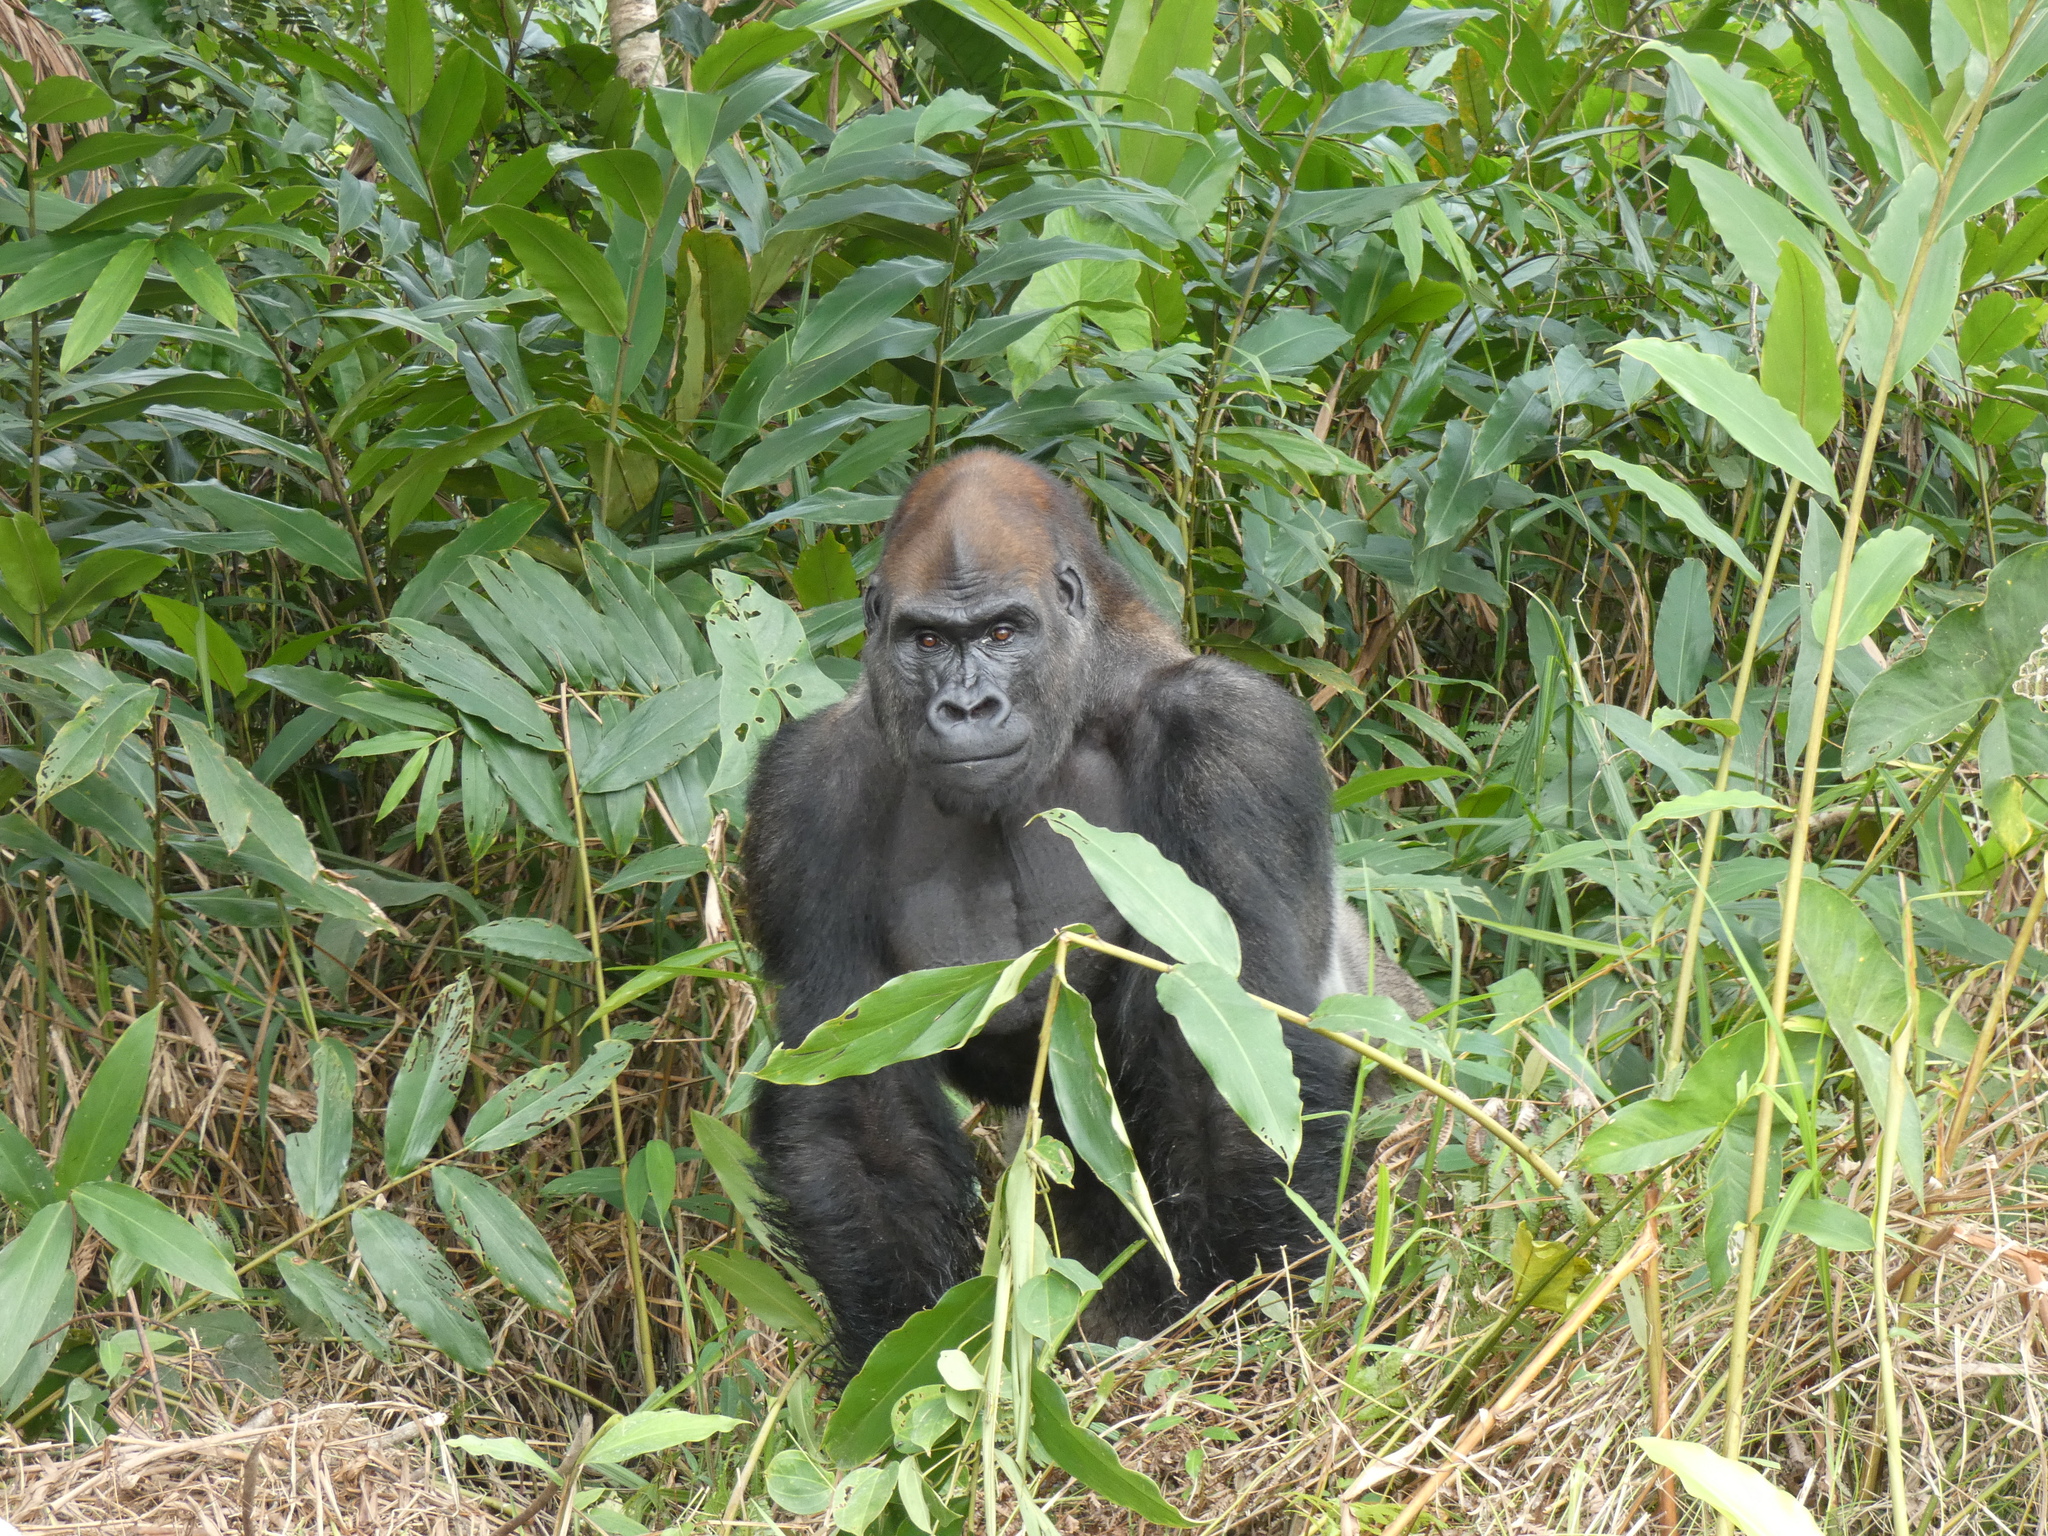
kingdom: Animalia
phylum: Chordata
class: Mammalia
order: Primates
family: Hominidae
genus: Gorilla
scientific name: Gorilla gorilla
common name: Western gorilla
